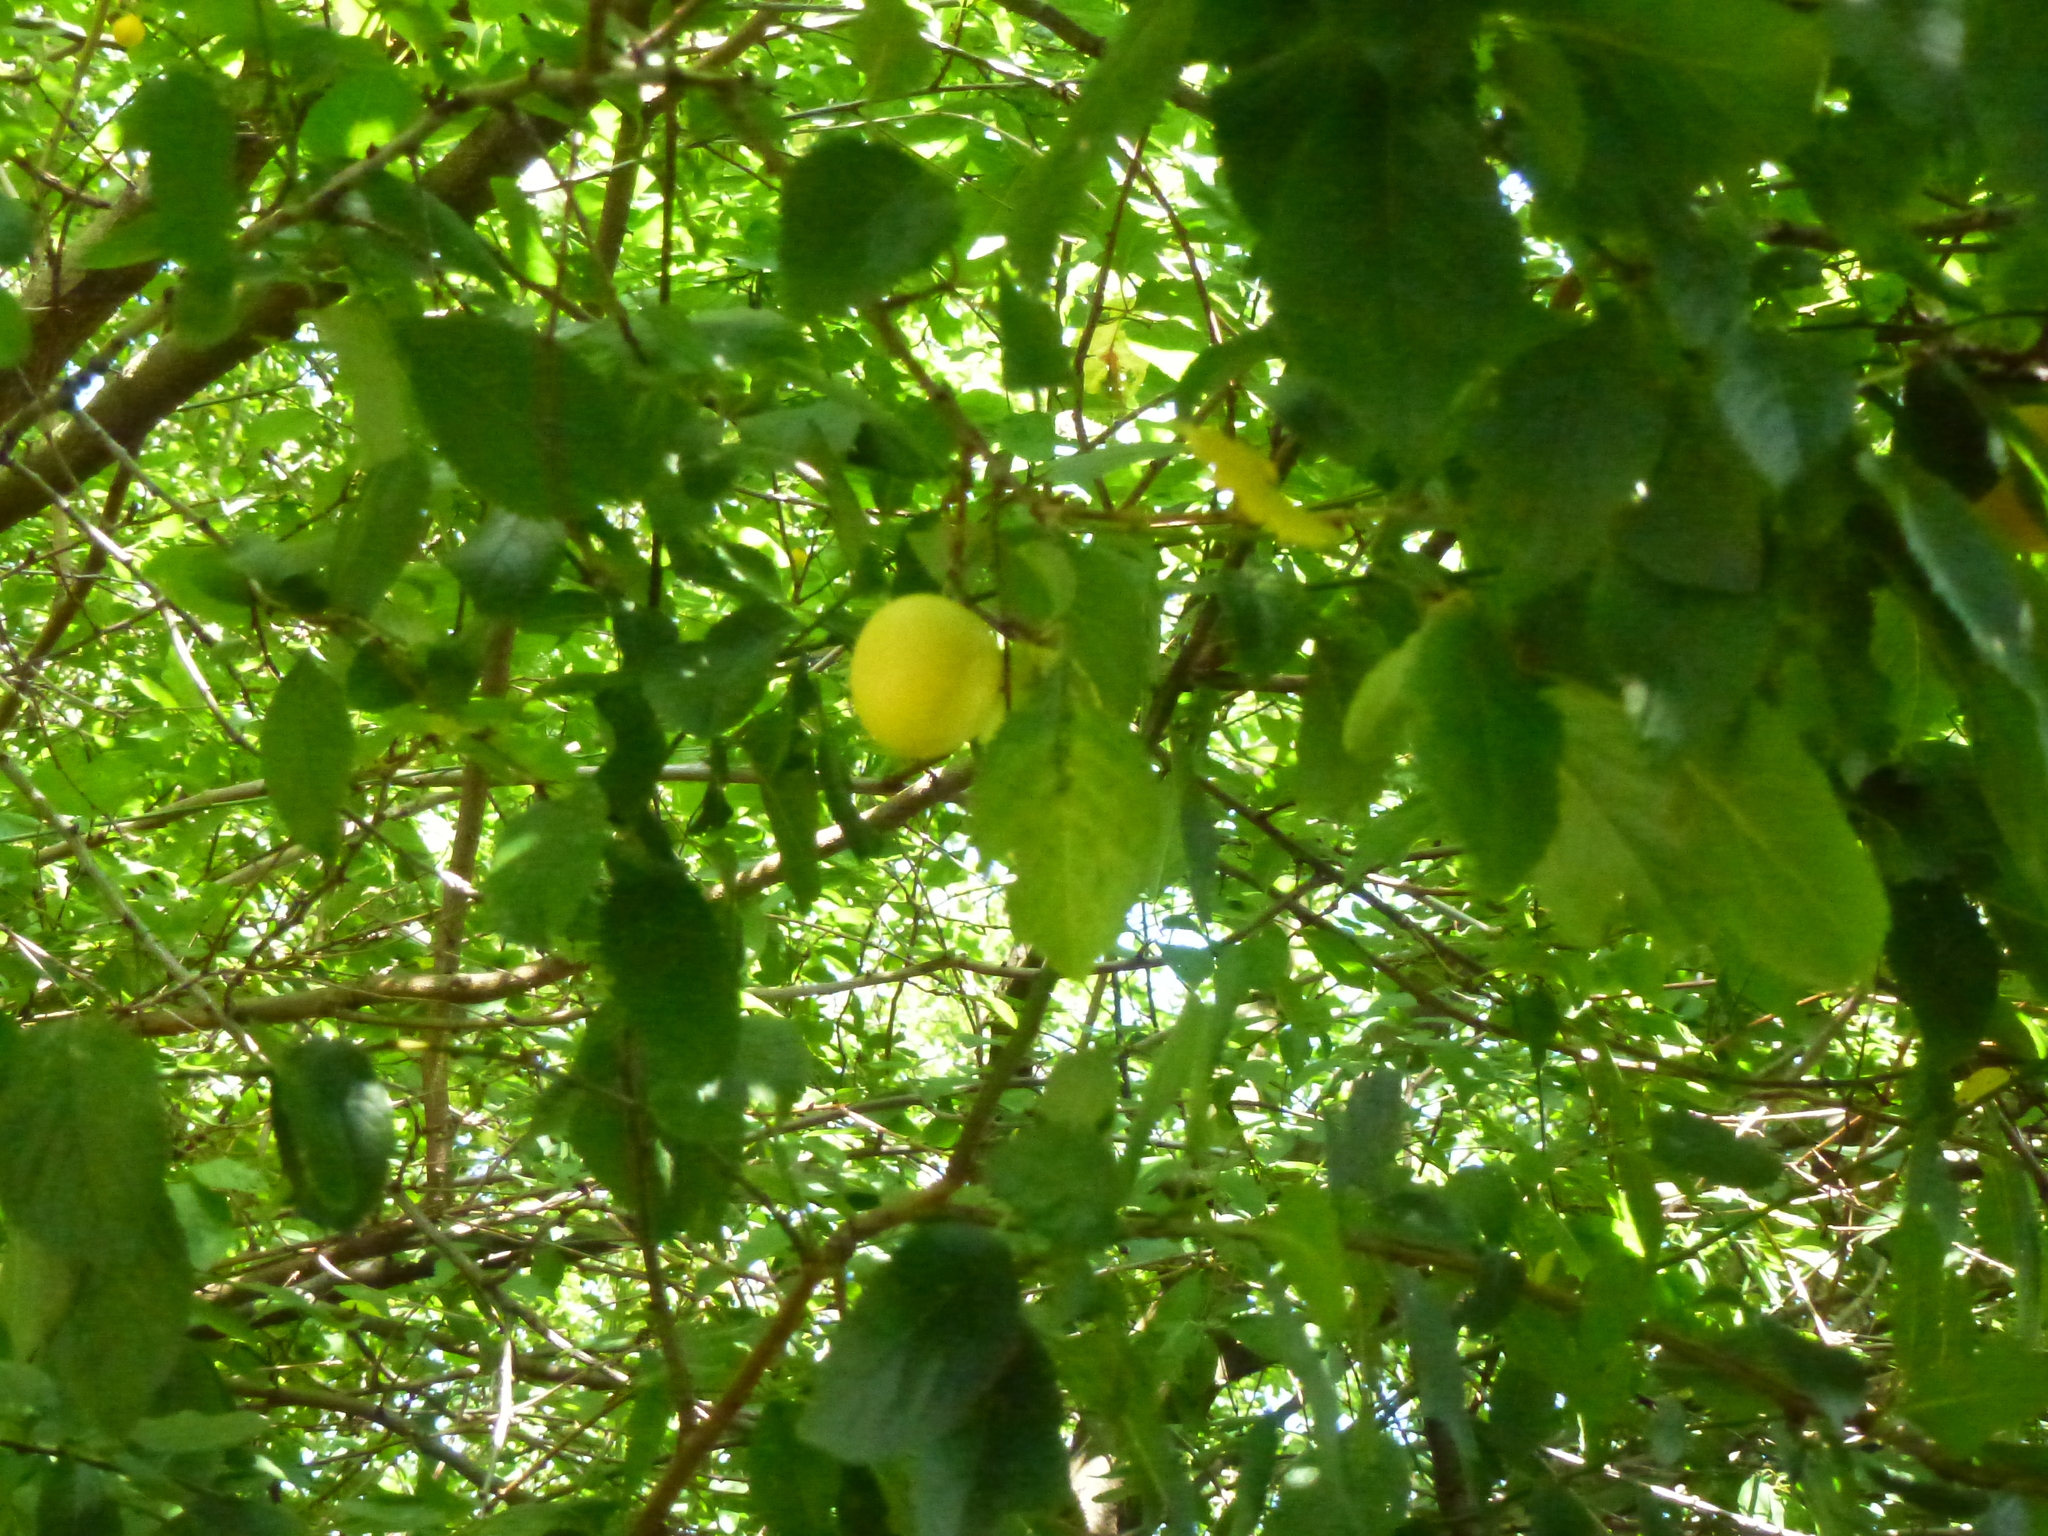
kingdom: Plantae
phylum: Tracheophyta
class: Magnoliopsida
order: Rosales
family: Rosaceae
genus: Prunus
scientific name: Prunus cerasifera
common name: Cherry plum
